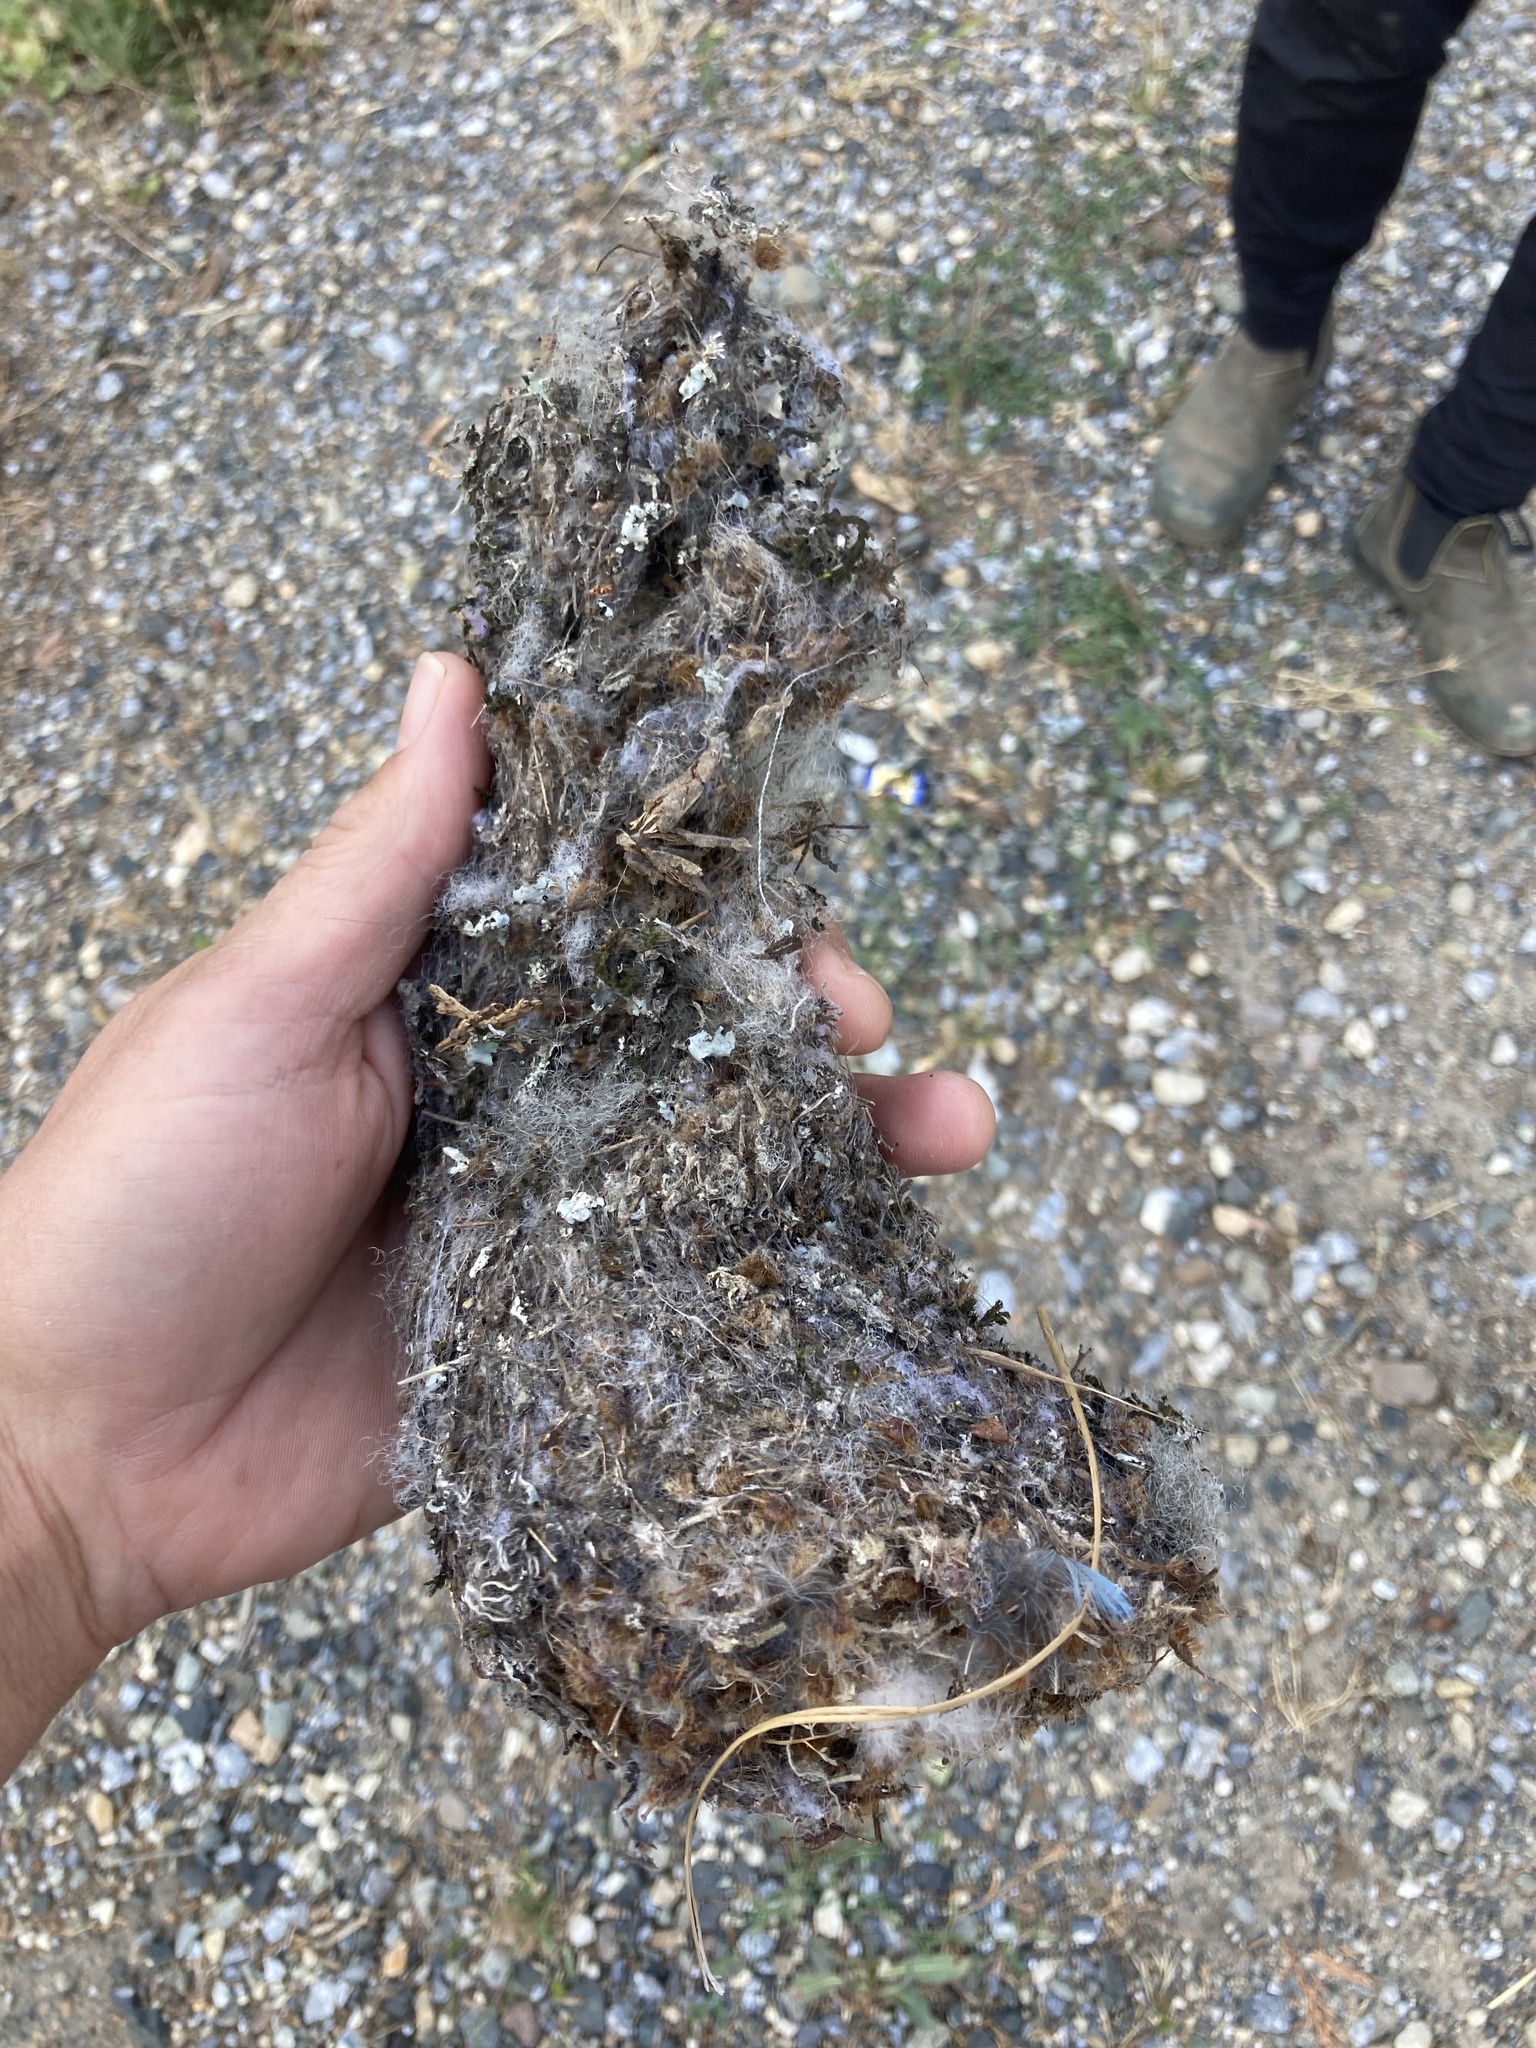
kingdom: Animalia
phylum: Chordata
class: Aves
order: Passeriformes
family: Aegithalidae
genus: Psaltriparus
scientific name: Psaltriparus minimus
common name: American bushtit
